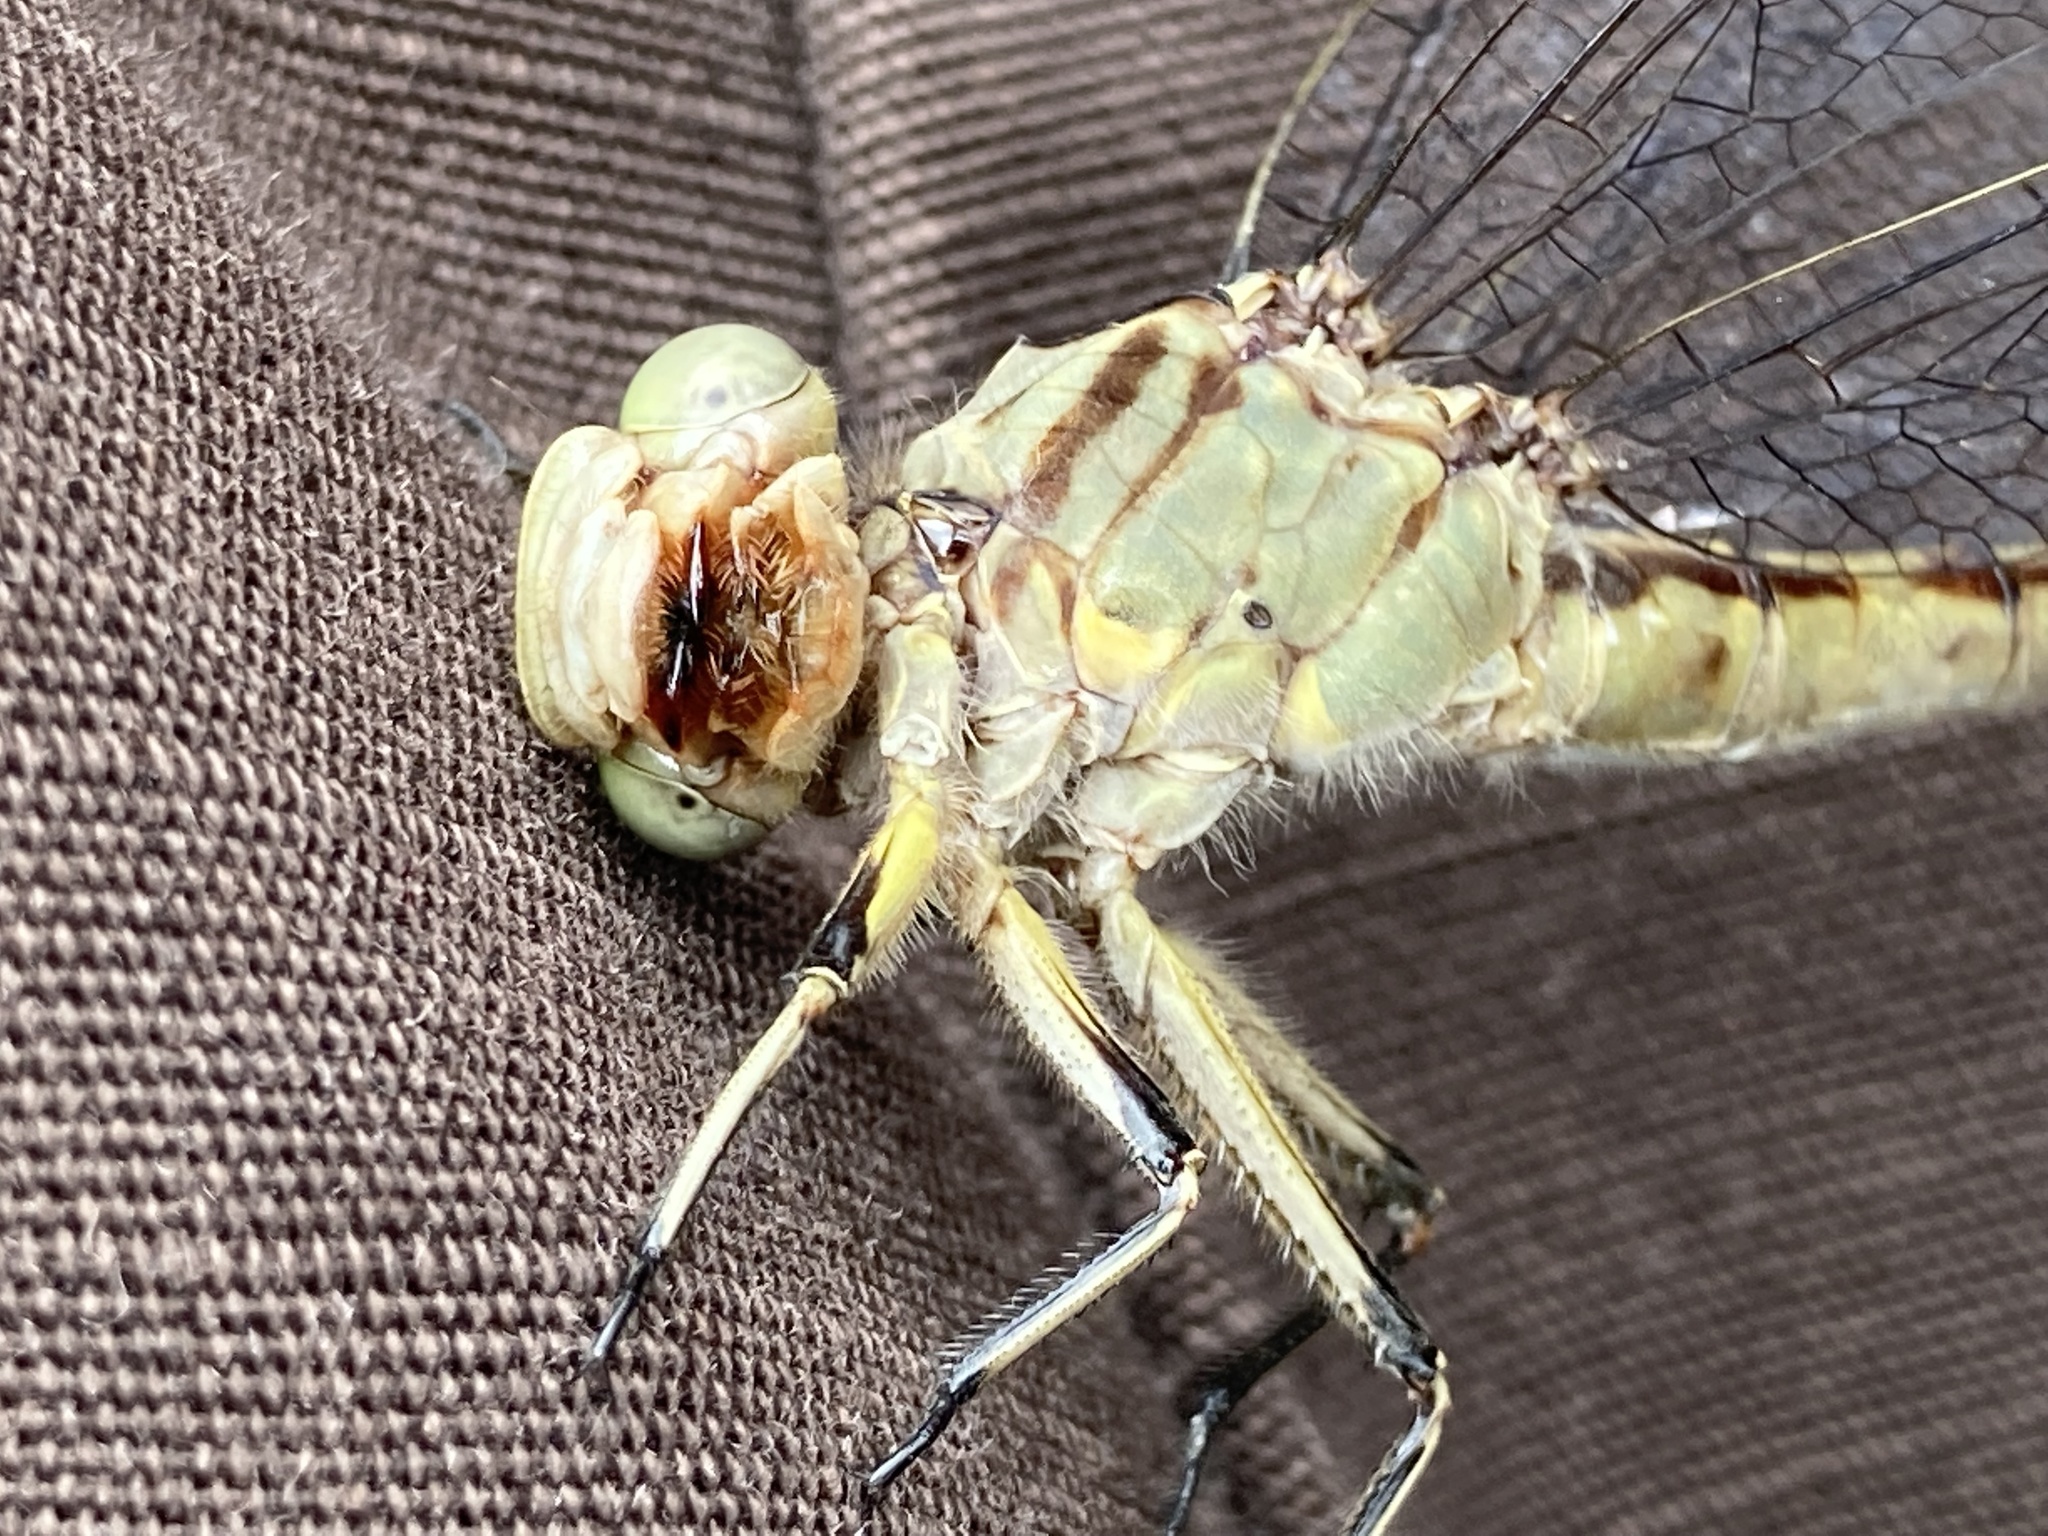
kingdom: Animalia
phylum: Arthropoda
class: Insecta
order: Odonata
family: Gomphidae
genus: Arigomphus
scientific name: Arigomphus submedianus
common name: Jade clubtail
